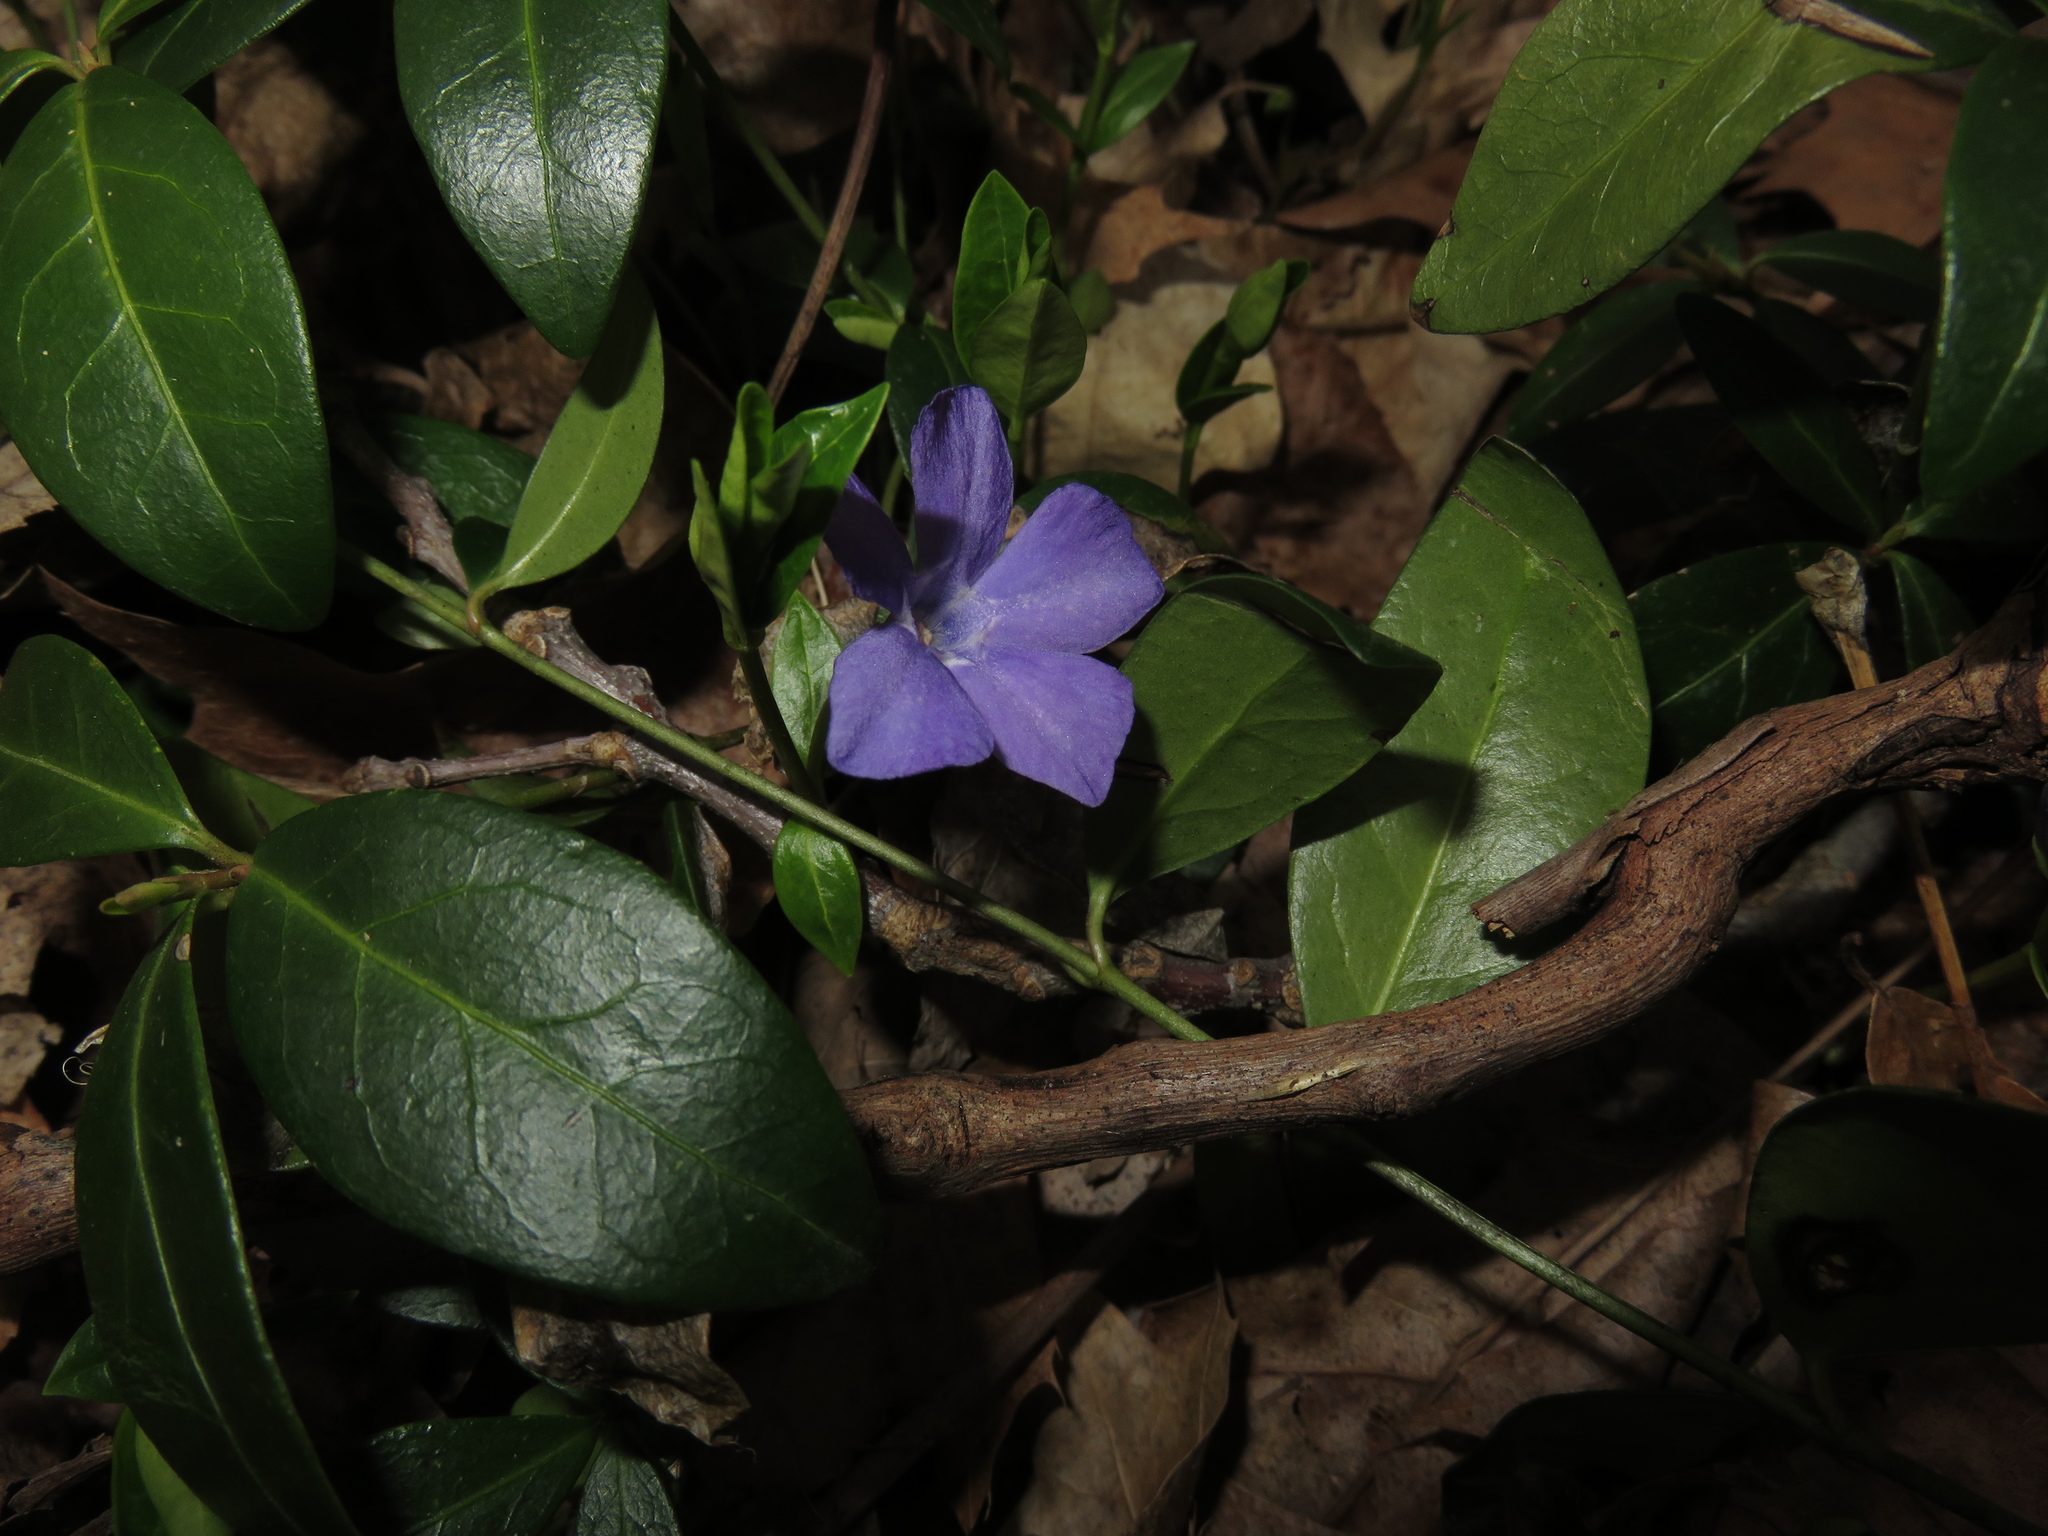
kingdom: Plantae
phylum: Tracheophyta
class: Magnoliopsida
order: Gentianales
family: Apocynaceae
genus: Vinca
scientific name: Vinca minor
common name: Lesser periwinkle
